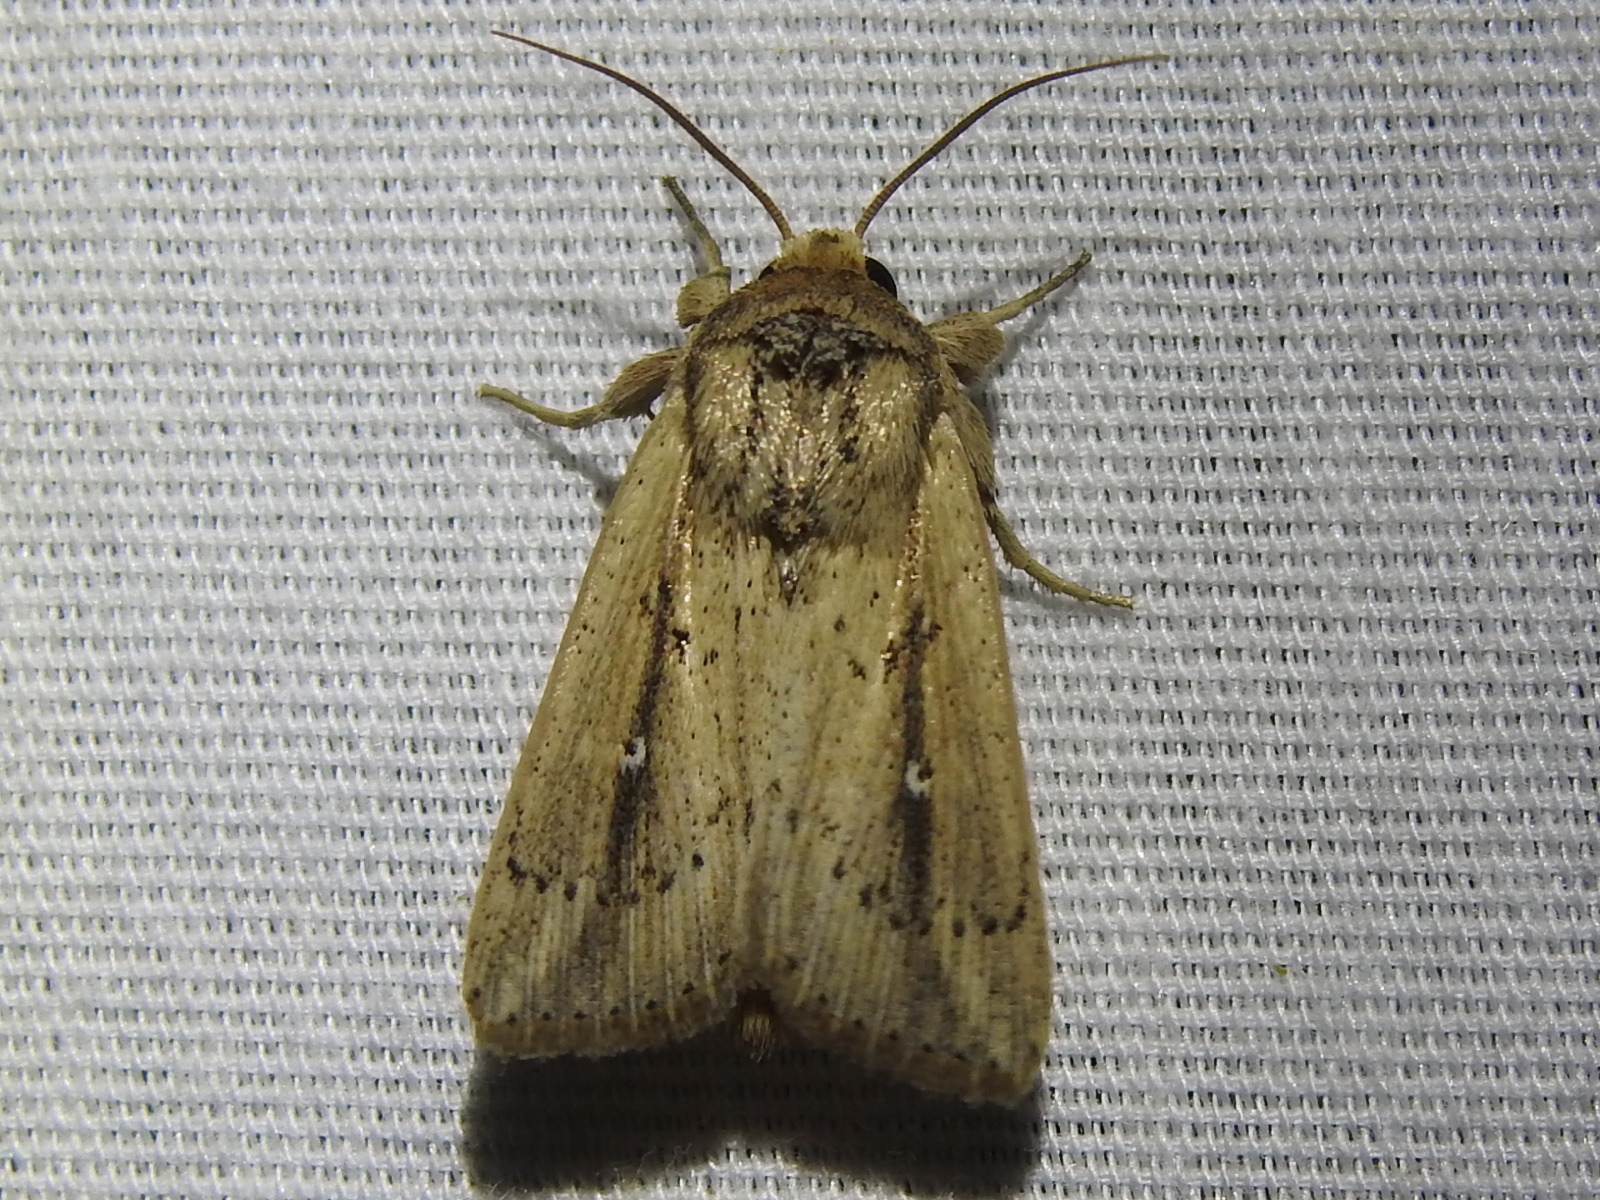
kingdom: Animalia
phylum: Arthropoda
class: Insecta
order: Lepidoptera
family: Noctuidae
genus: Leucania
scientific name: Leucania incognita
